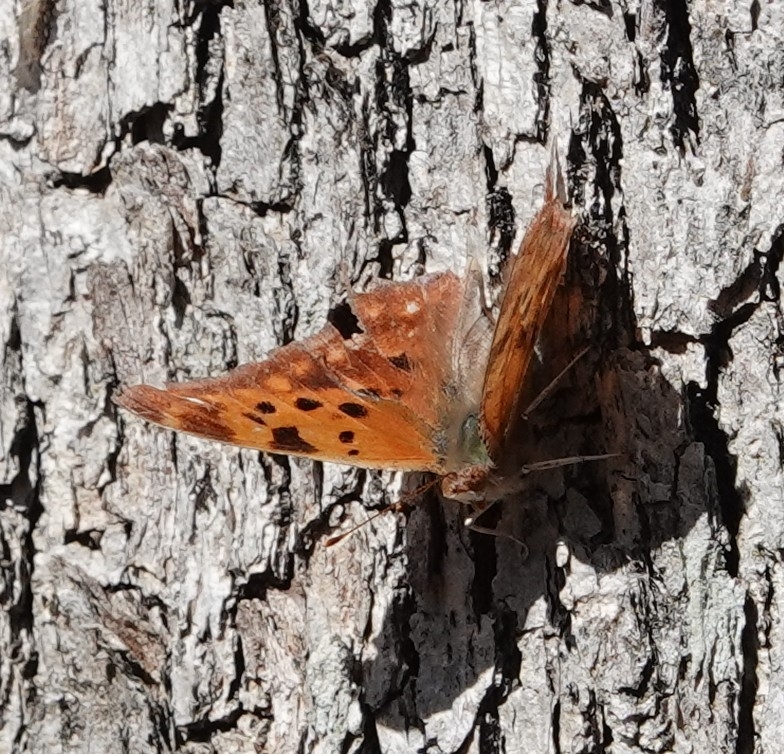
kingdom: Animalia
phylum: Arthropoda
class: Insecta
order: Lepidoptera
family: Nymphalidae
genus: Polygonia
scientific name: Polygonia interrogationis
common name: Question mark
